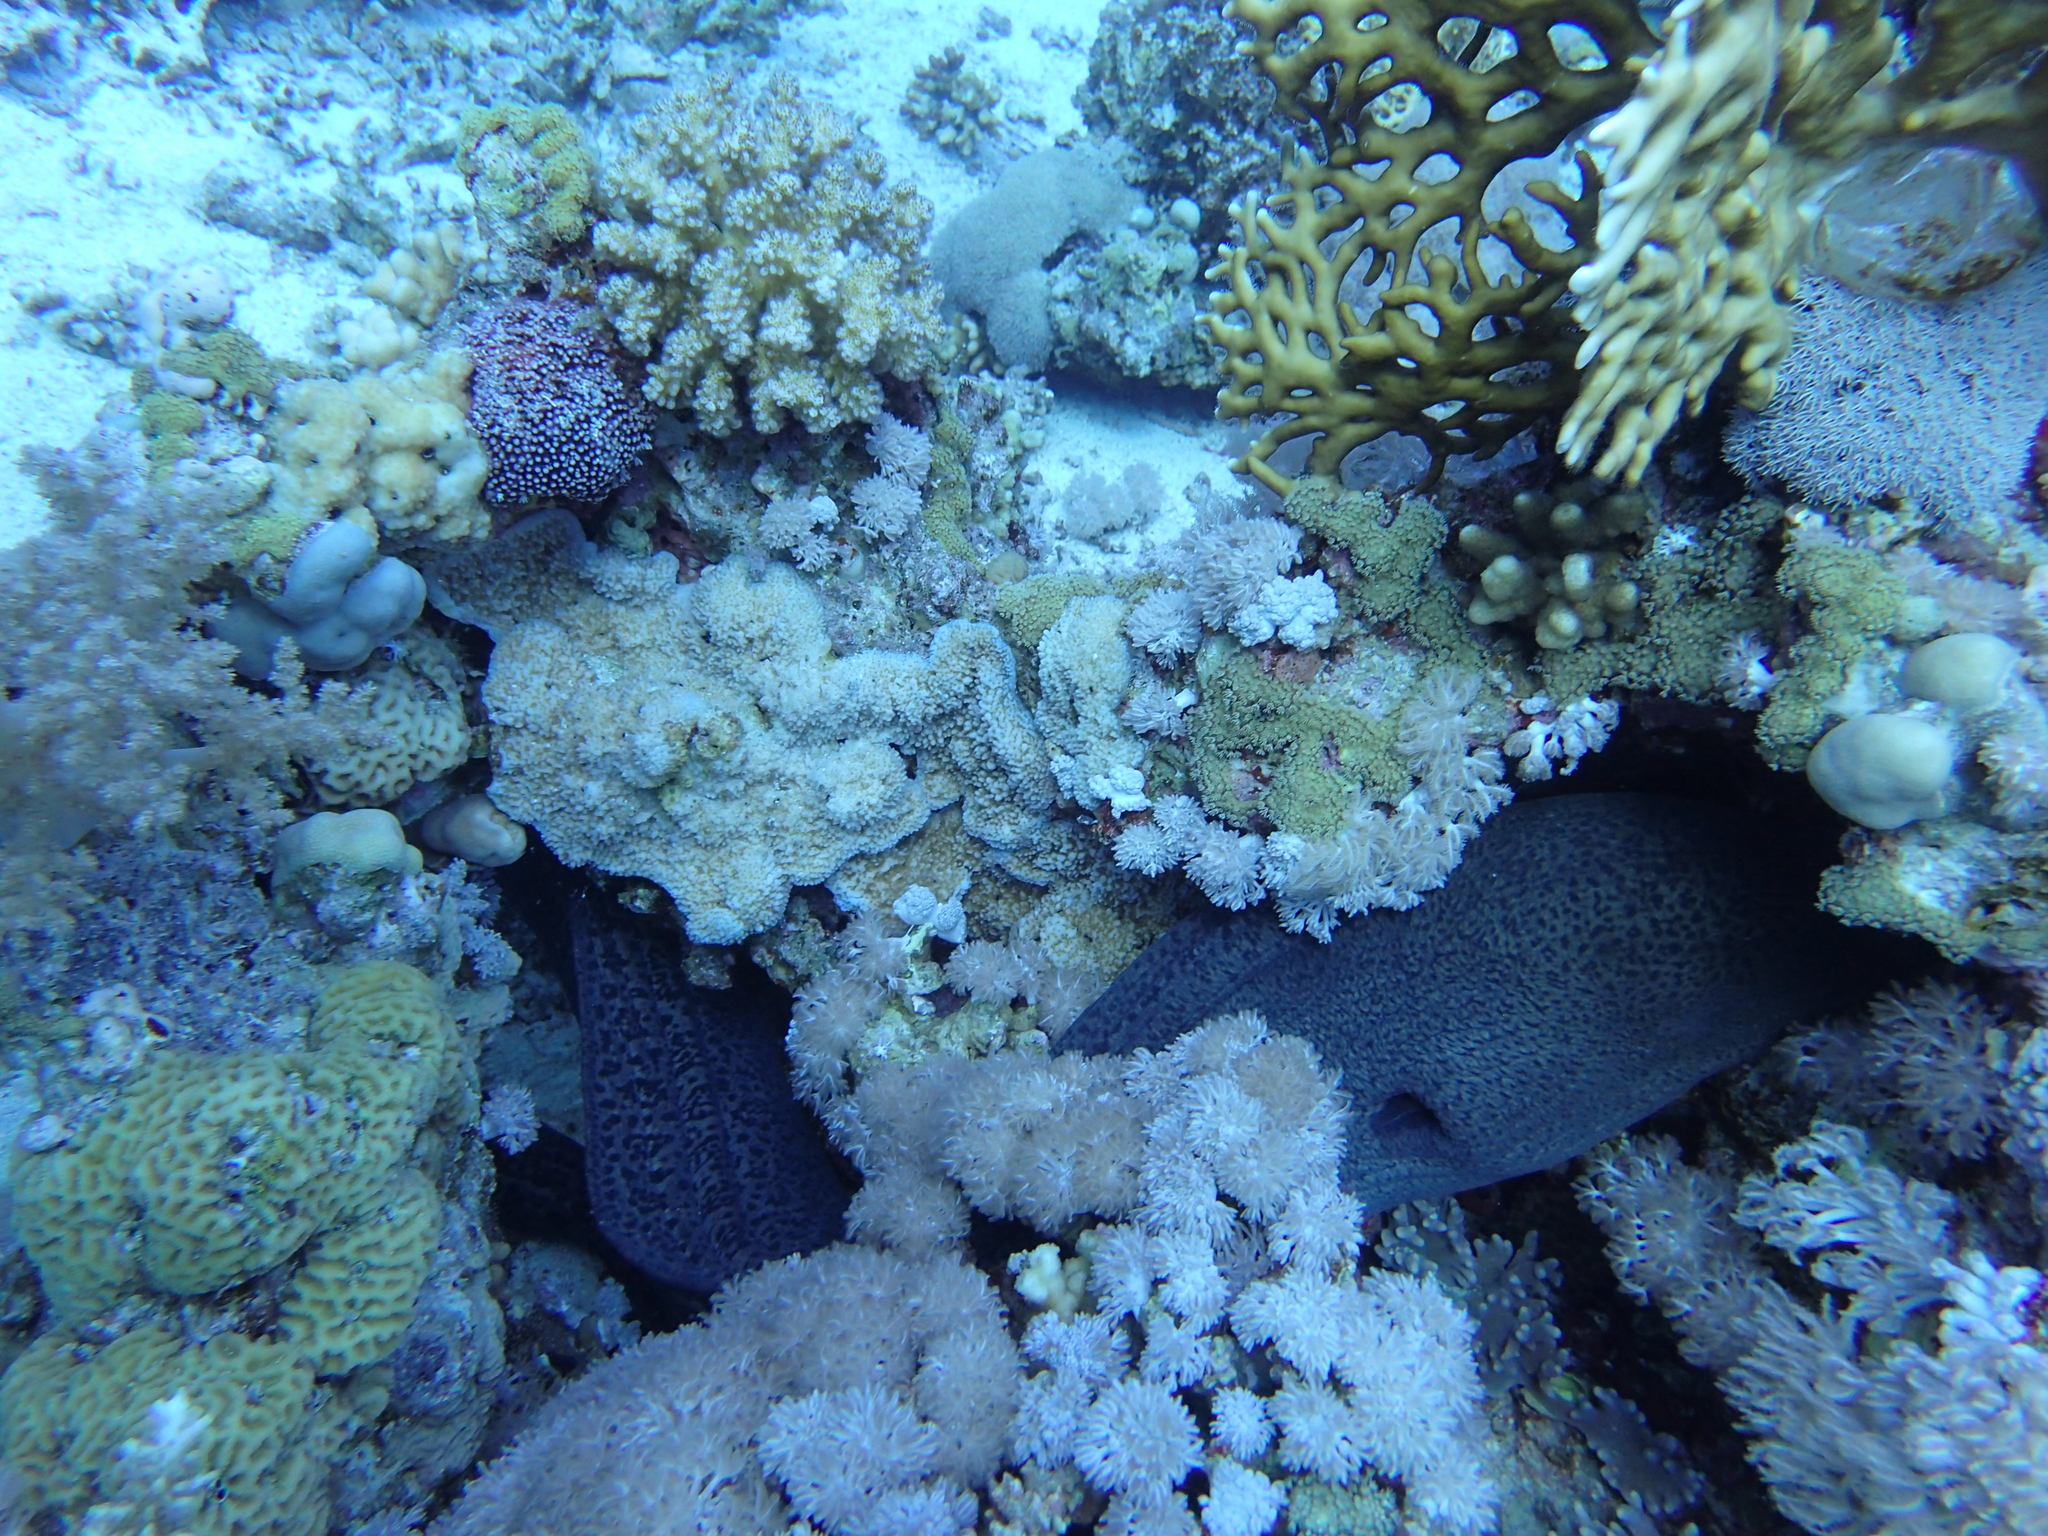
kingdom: Animalia
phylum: Chordata
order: Anguilliformes
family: Muraenidae
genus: Gymnothorax
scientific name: Gymnothorax javanicus
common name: Giant moray
